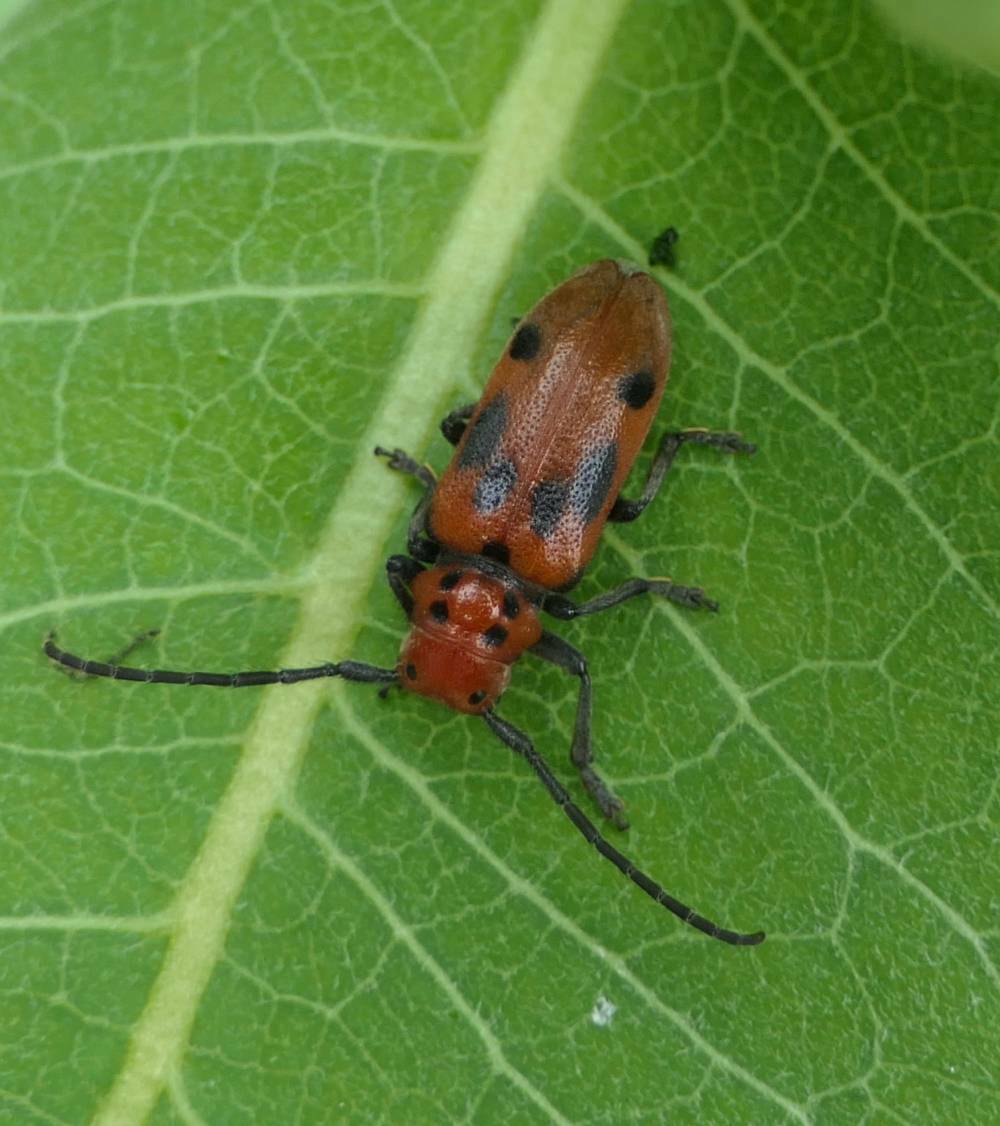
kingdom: Animalia
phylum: Arthropoda
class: Insecta
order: Coleoptera
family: Cerambycidae
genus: Tetraopes
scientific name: Tetraopes tetrophthalmus
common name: Red milkweed beetle
